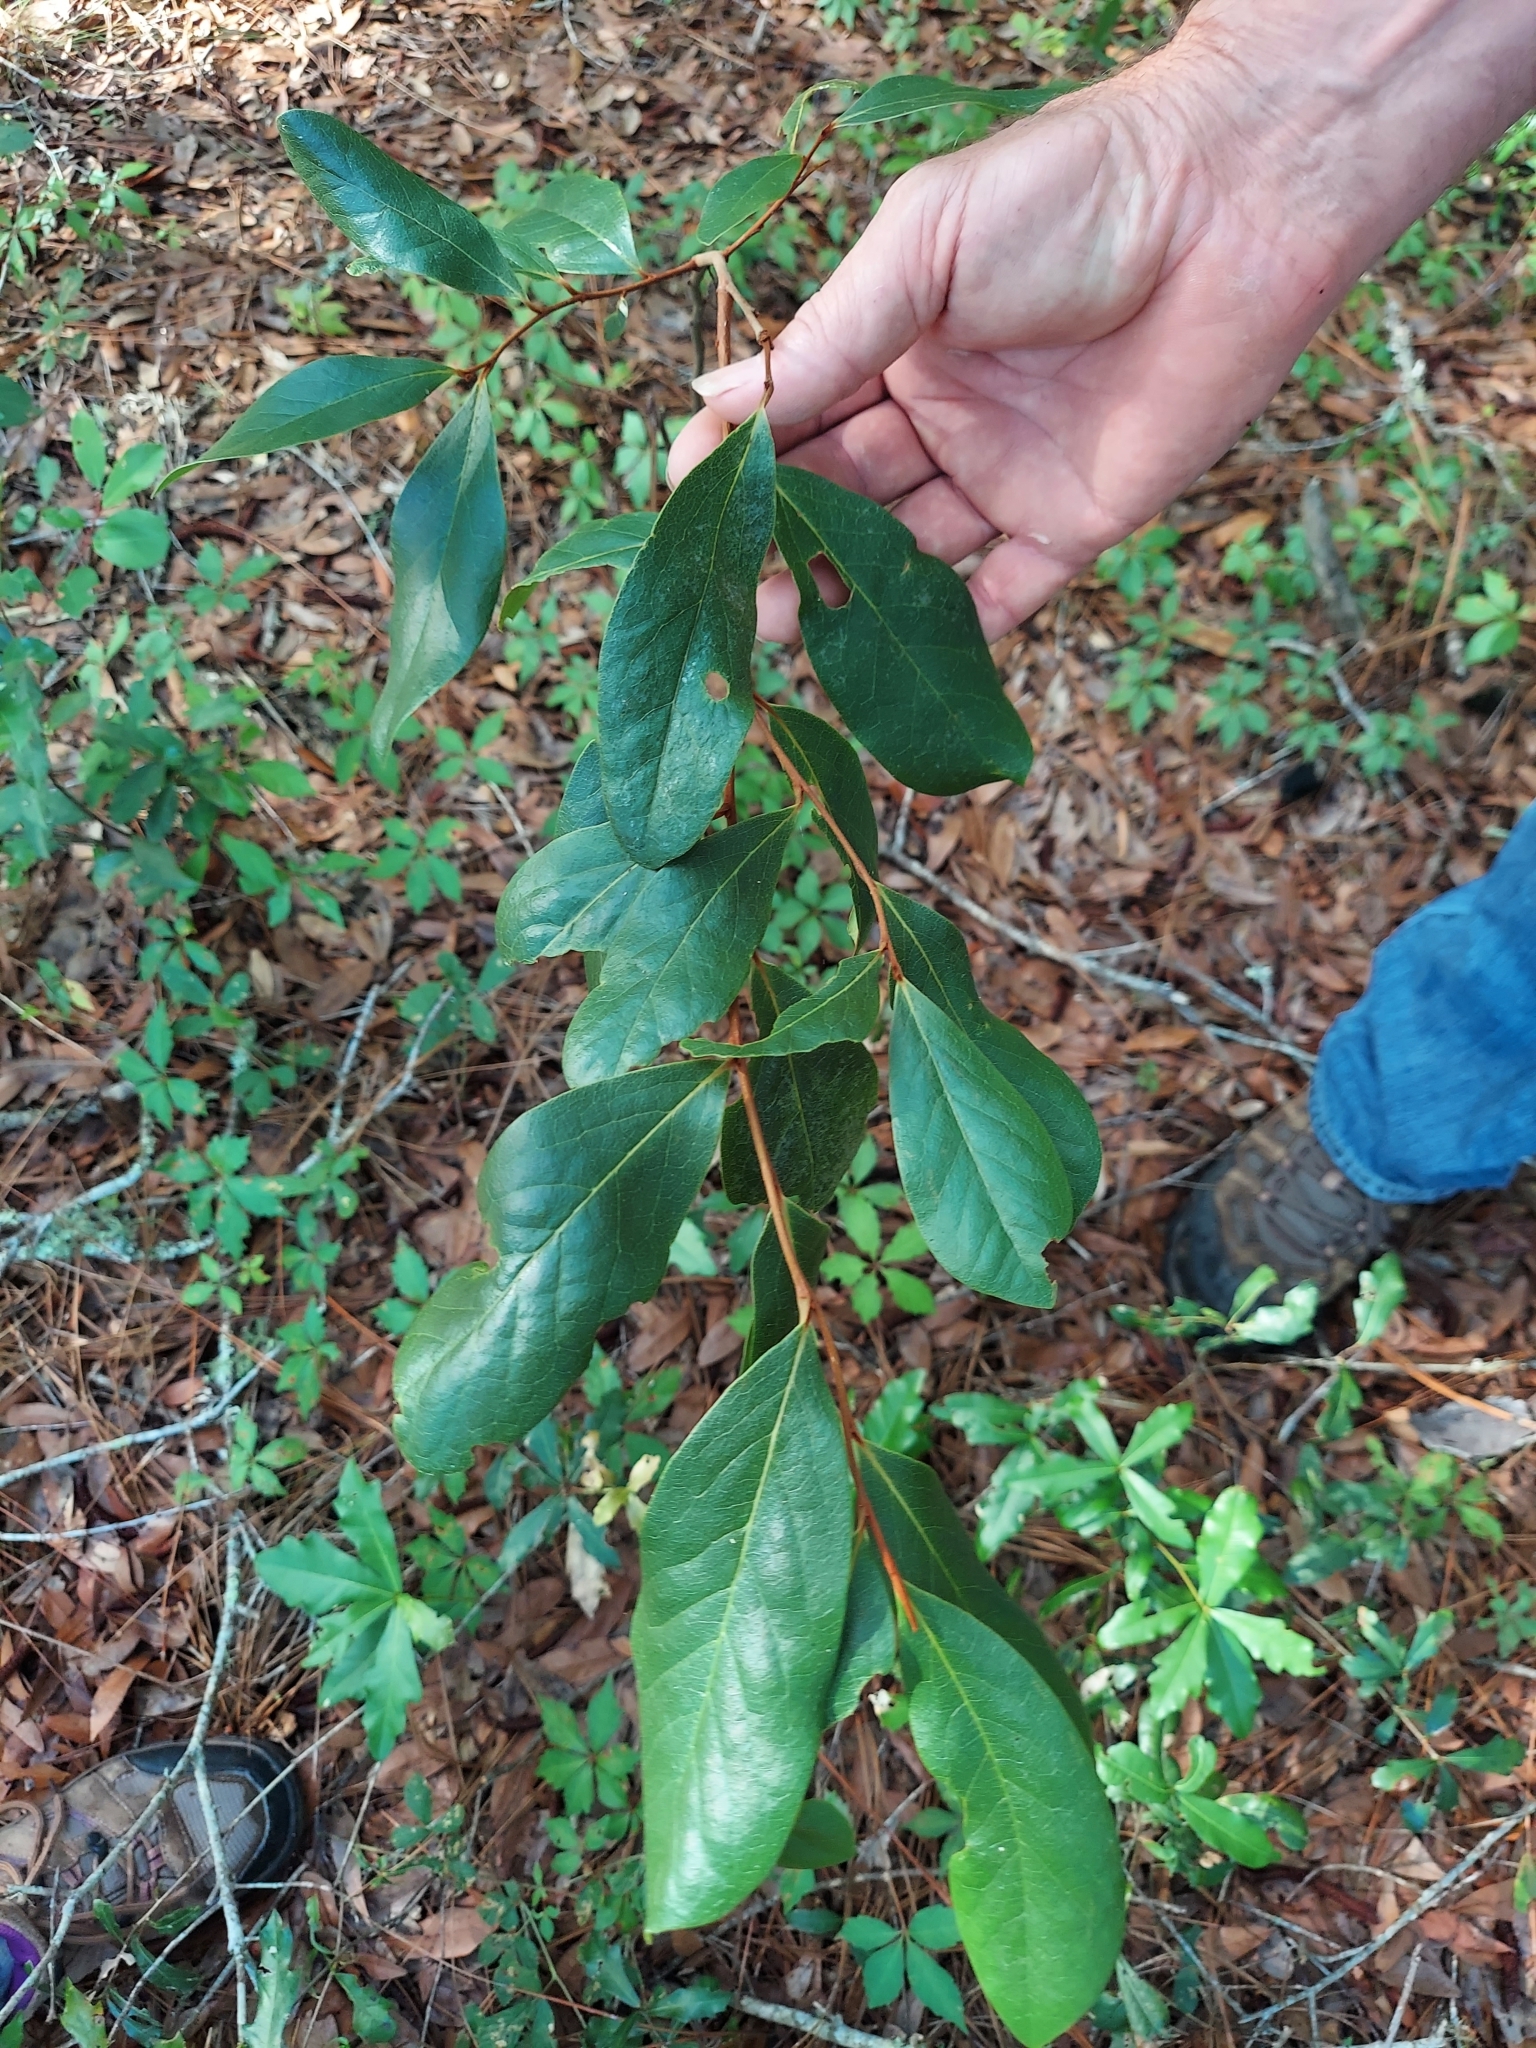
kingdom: Plantae
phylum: Tracheophyta
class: Magnoliopsida
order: Magnoliales
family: Annonaceae
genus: Asimina
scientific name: Asimina obovata
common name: Flag pawpaw
